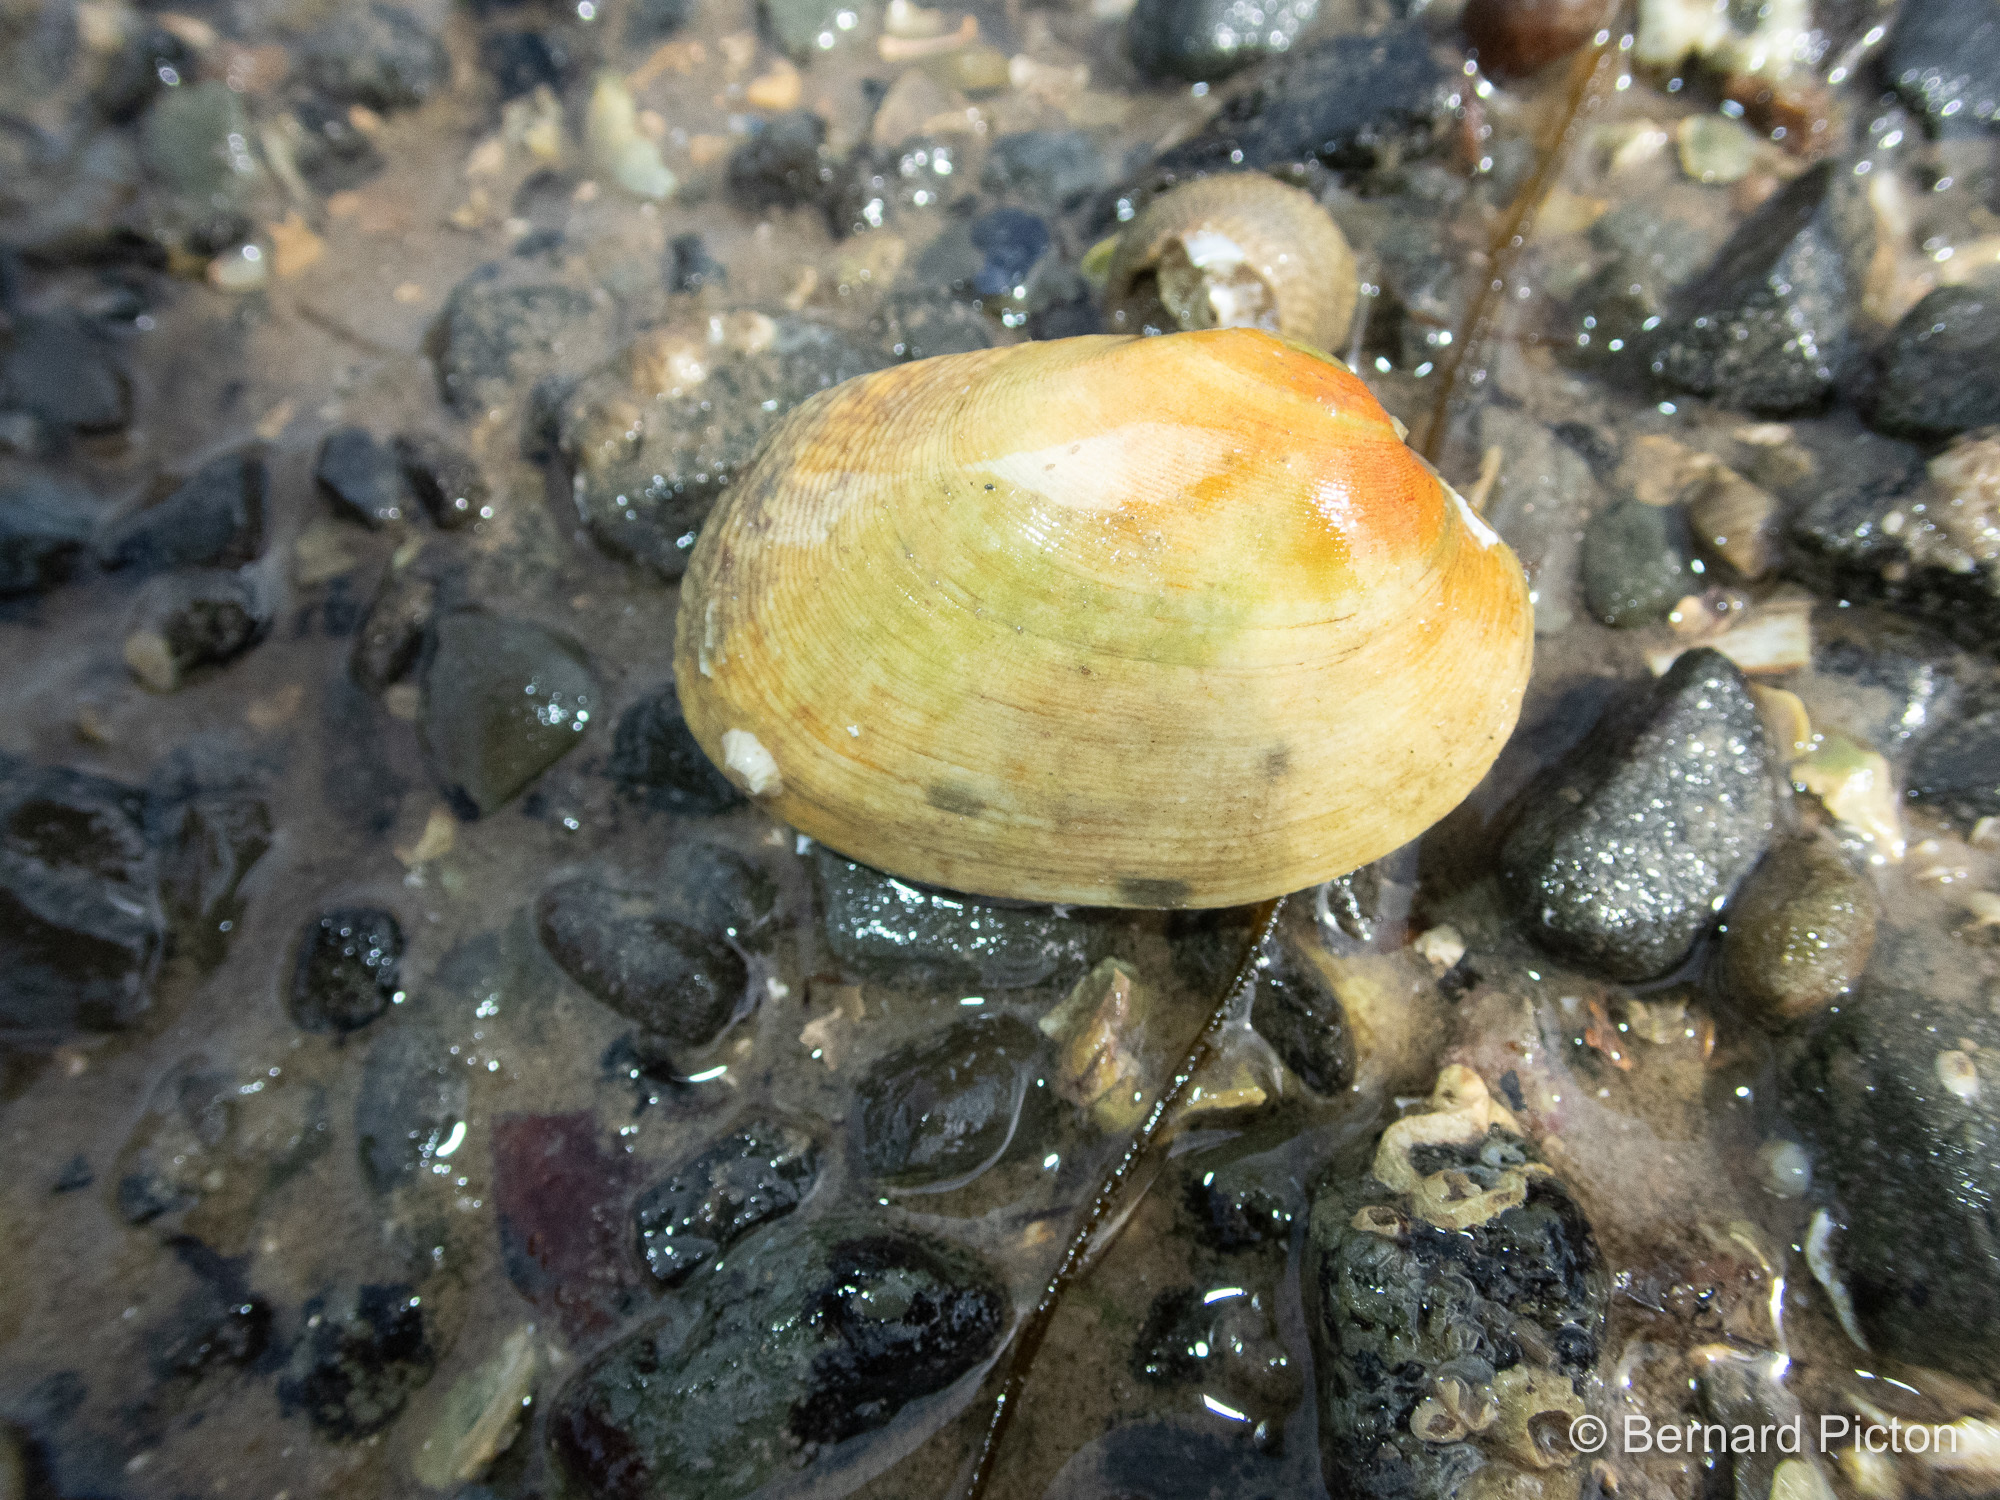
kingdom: Animalia
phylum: Mollusca
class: Bivalvia
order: Venerida
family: Veneridae
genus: Polititapes
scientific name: Polititapes rhomboides
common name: Banded carpet shell
